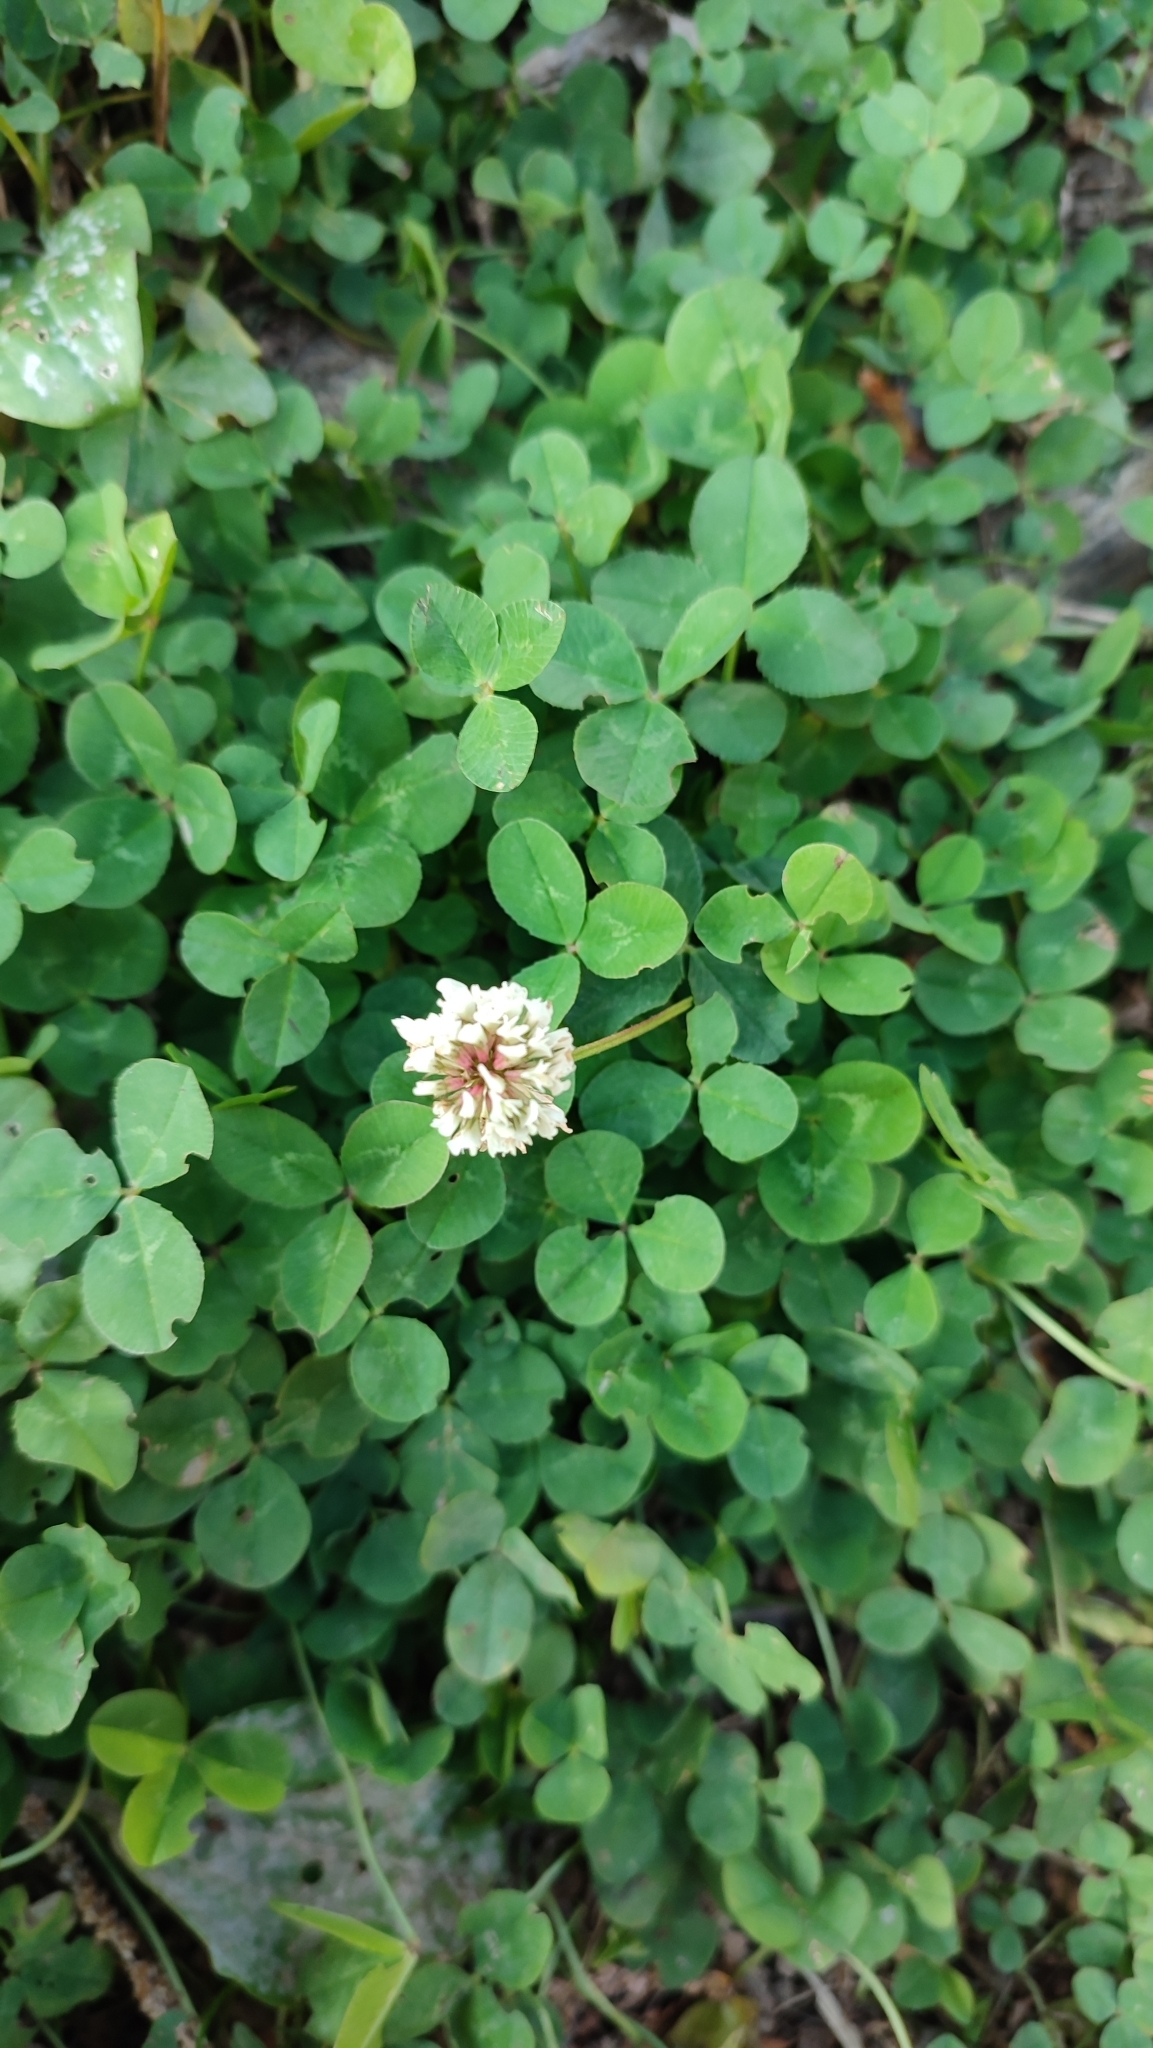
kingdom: Plantae
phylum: Tracheophyta
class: Magnoliopsida
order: Fabales
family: Fabaceae
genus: Trifolium
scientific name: Trifolium repens
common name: White clover
